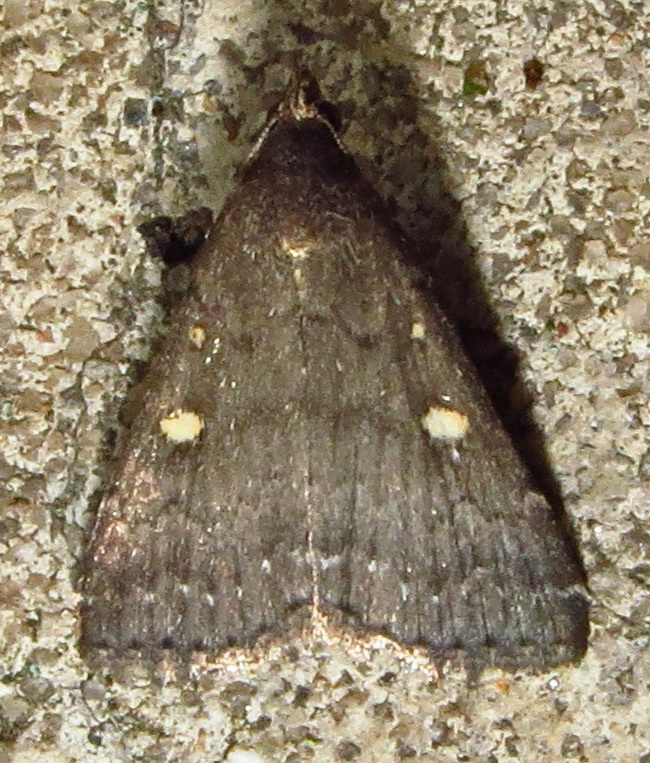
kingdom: Animalia
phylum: Arthropoda
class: Insecta
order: Lepidoptera
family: Erebidae
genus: Tetanolita
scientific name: Tetanolita mynesalis
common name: Smoky tetanolita moth
